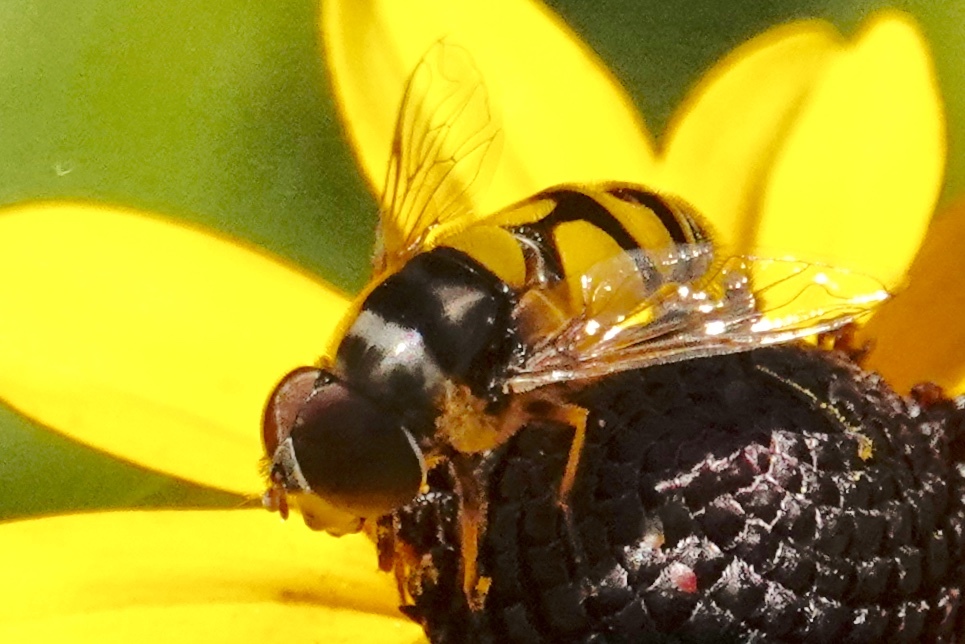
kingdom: Animalia
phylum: Arthropoda
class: Insecta
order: Diptera
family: Syrphidae
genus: Eristalis
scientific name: Eristalis transversa
